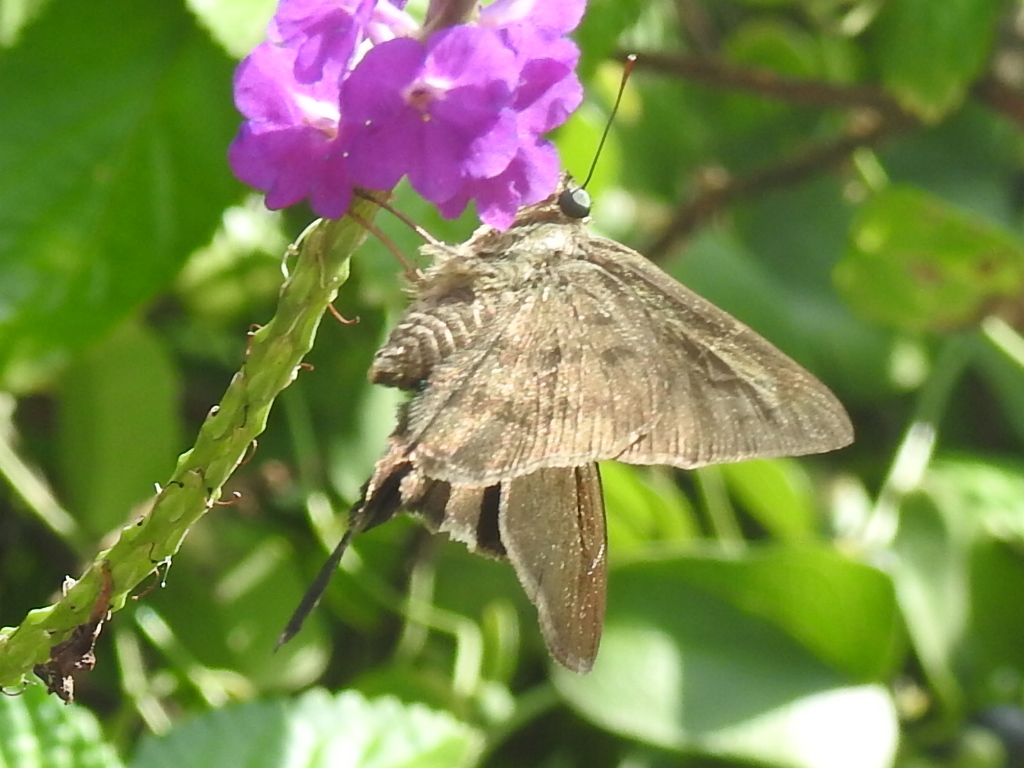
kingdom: Animalia
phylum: Arthropoda
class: Insecta
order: Lepidoptera
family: Hesperiidae
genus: Urbanus
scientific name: Urbanus procne
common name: Brown longtail
